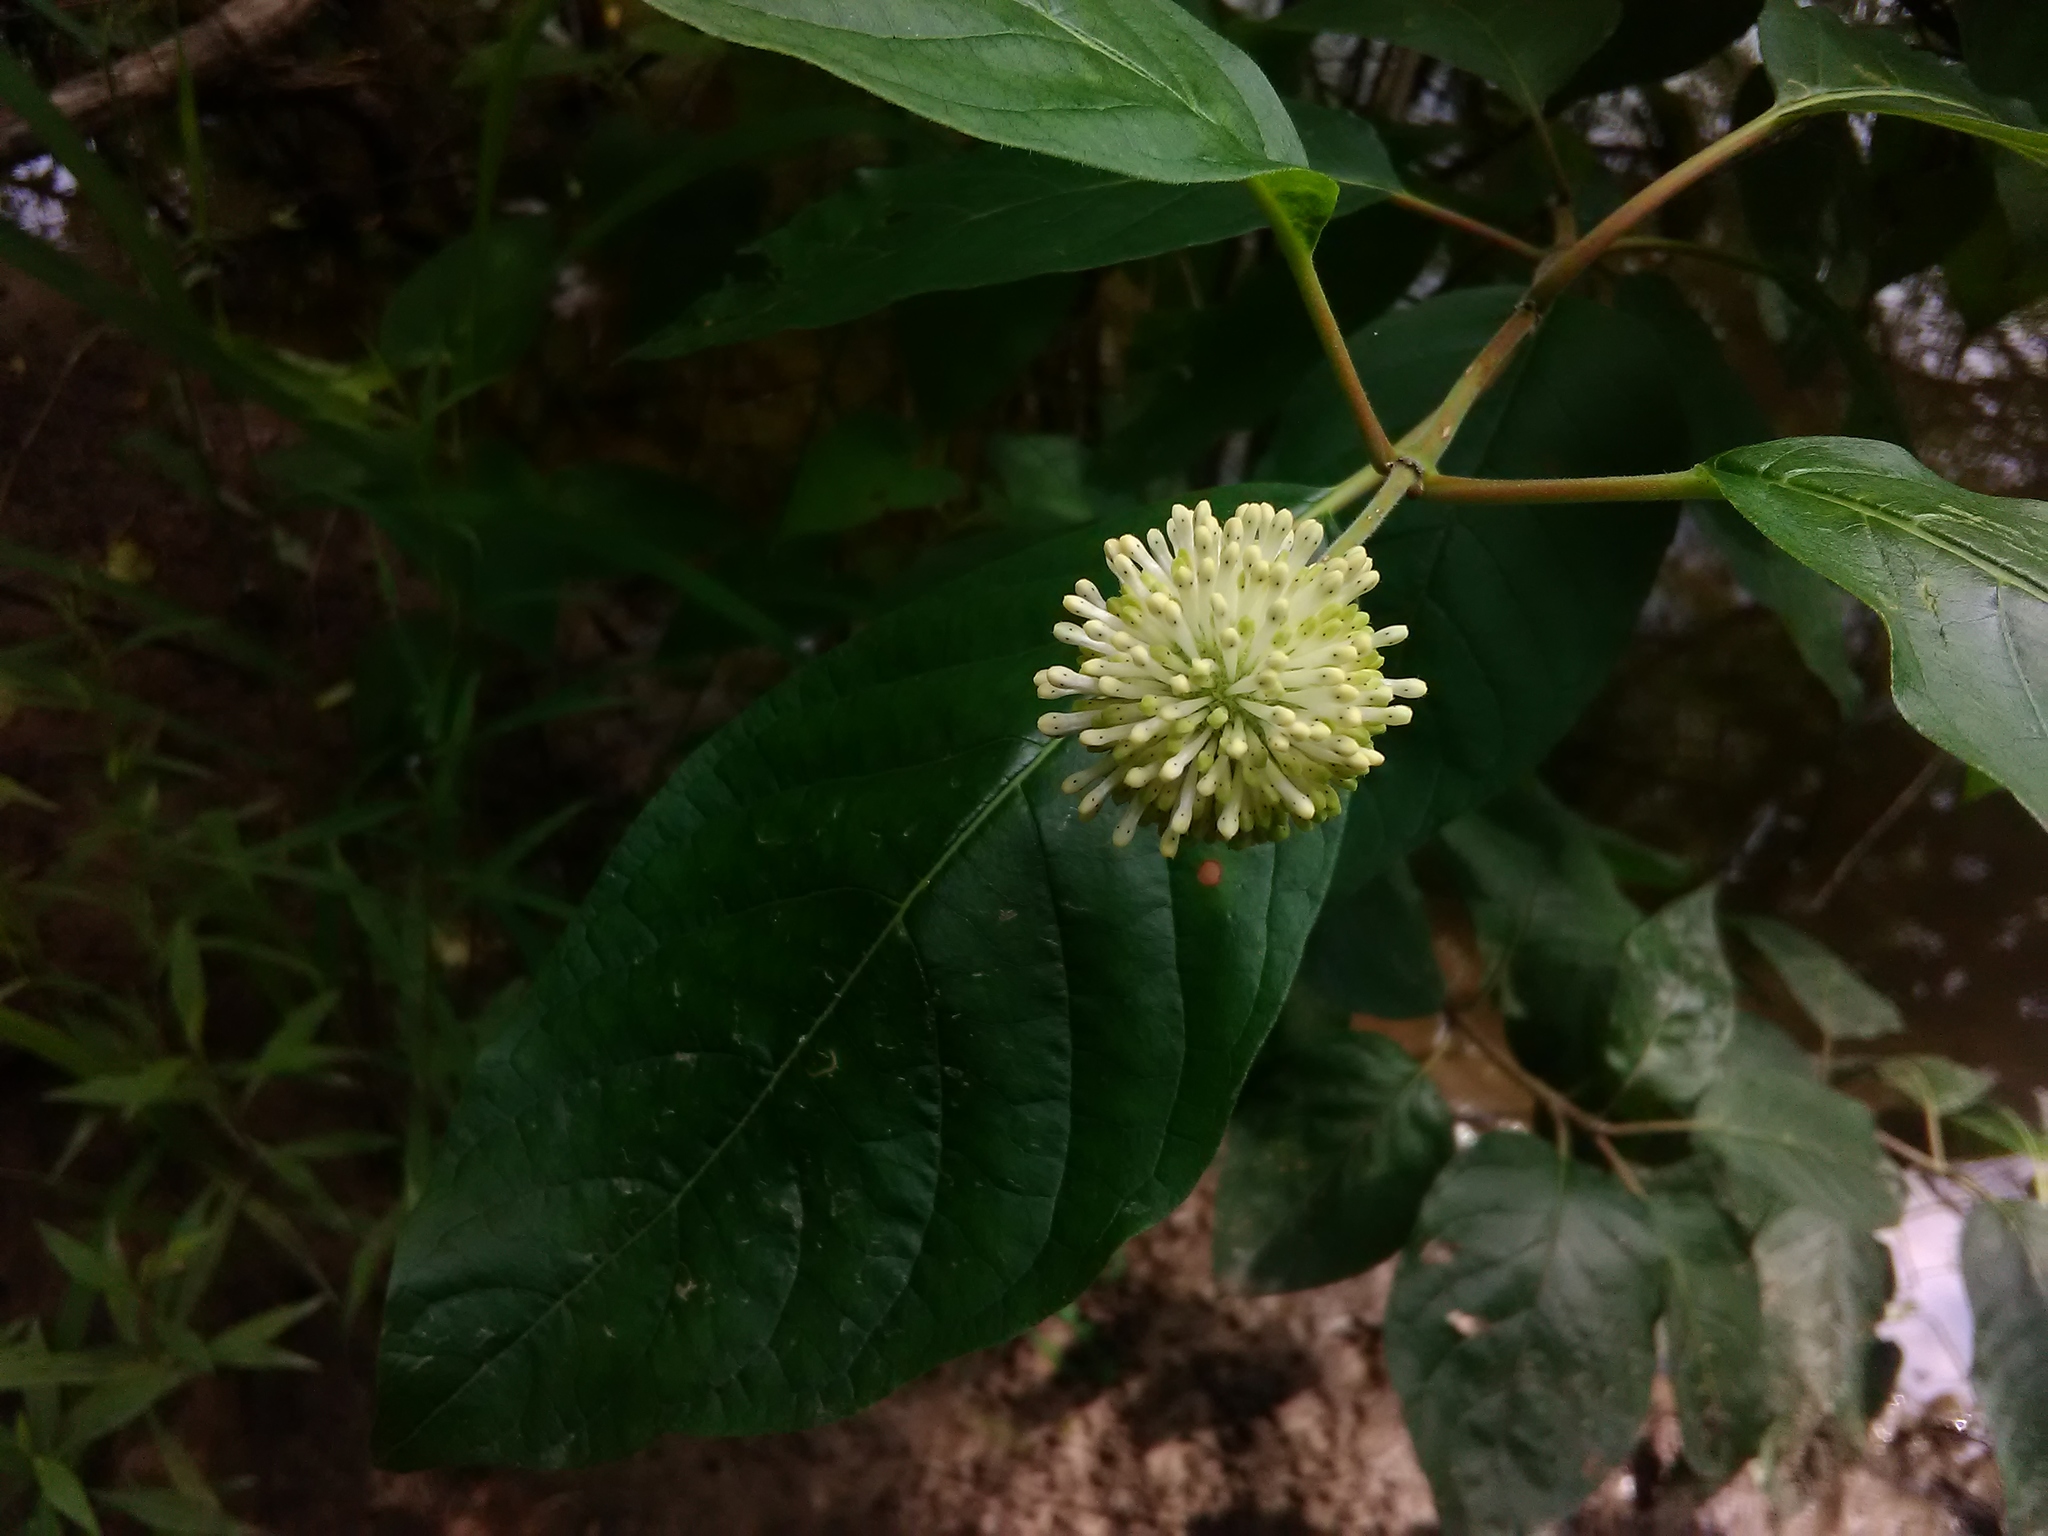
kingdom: Plantae
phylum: Tracheophyta
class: Magnoliopsida
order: Gentianales
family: Rubiaceae
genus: Cephalanthus
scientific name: Cephalanthus occidentalis
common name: Button-willow
